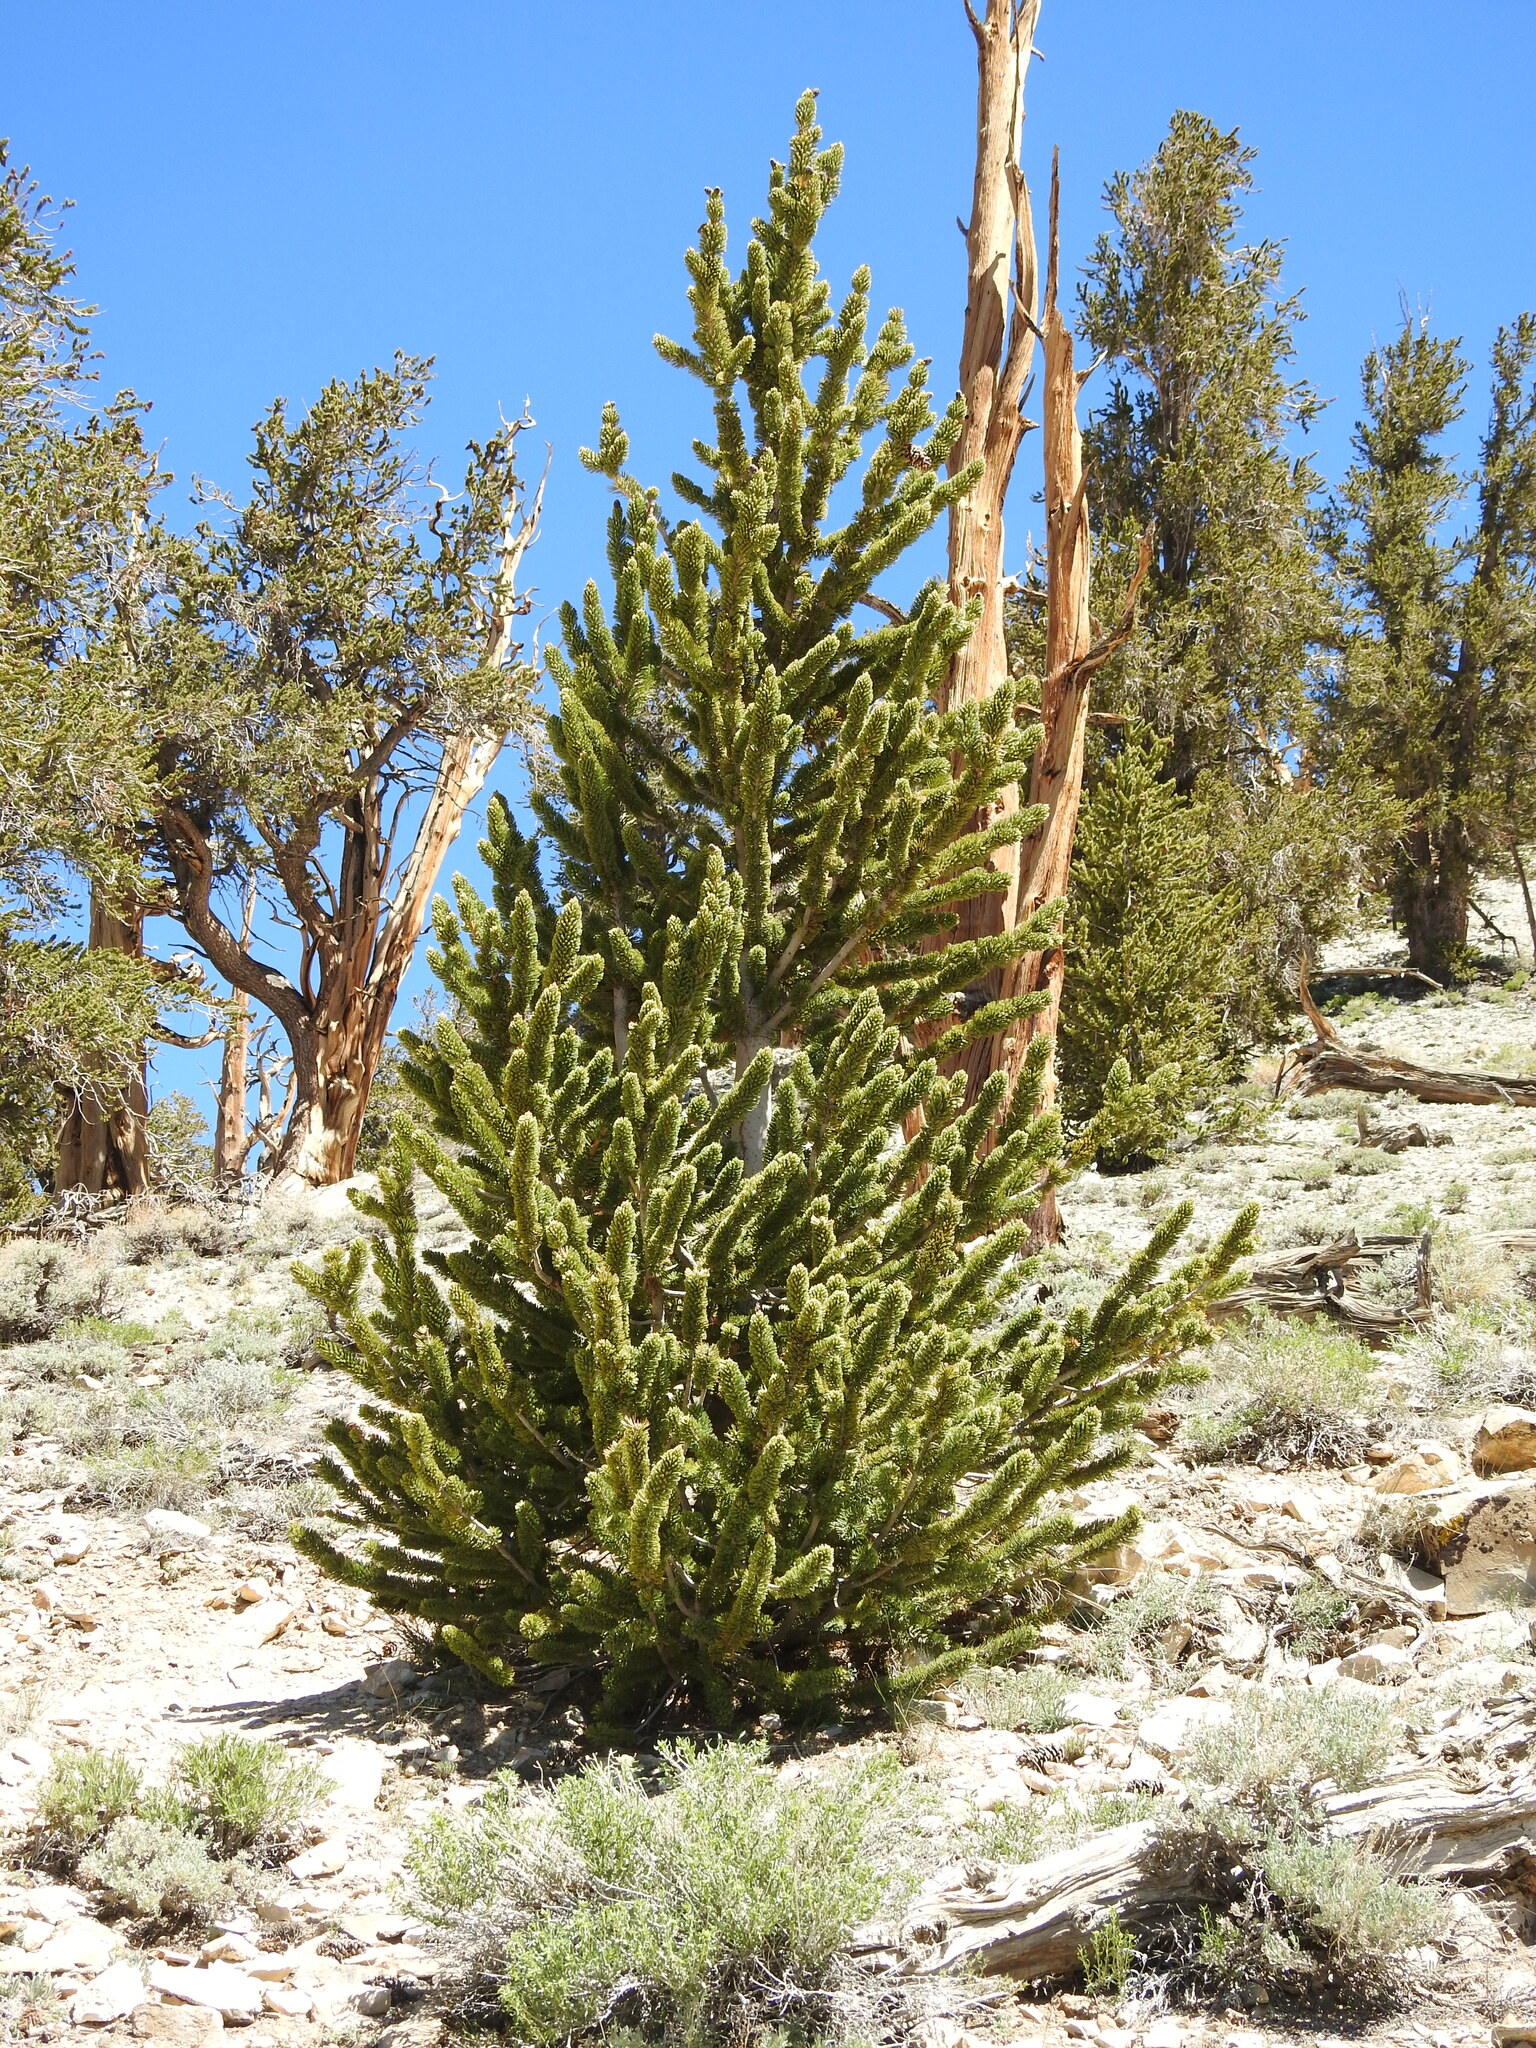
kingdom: Plantae
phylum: Tracheophyta
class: Pinopsida
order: Pinales
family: Pinaceae
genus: Pinus
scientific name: Pinus longaeva
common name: Intermountain bristlecone pine
